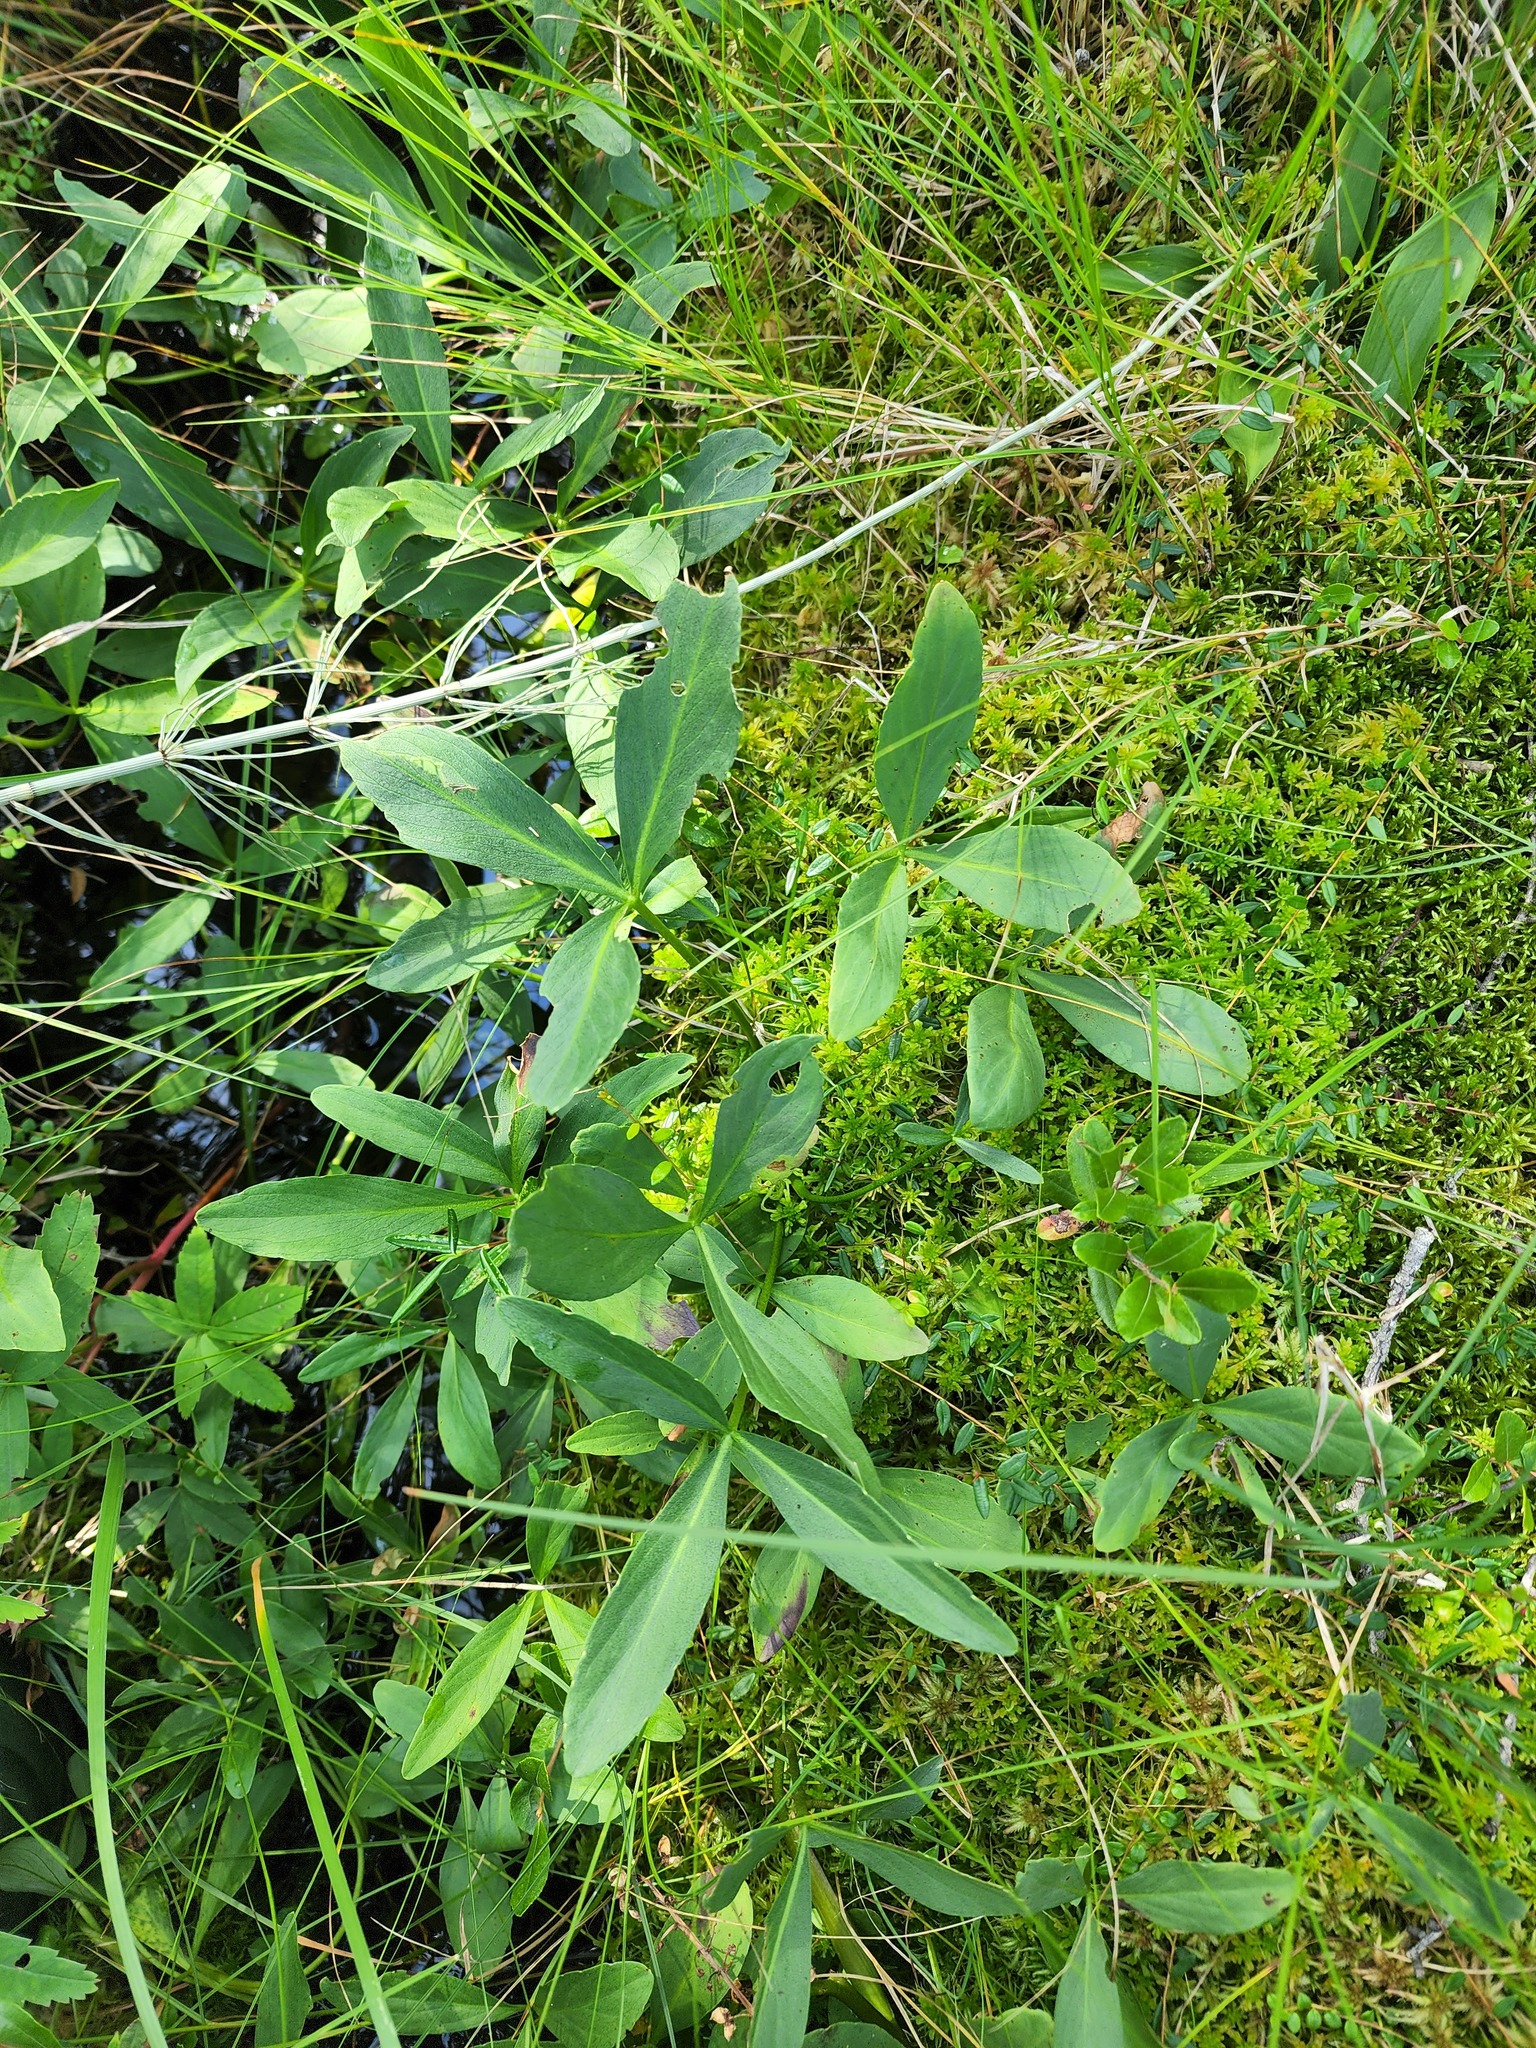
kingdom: Plantae
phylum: Tracheophyta
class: Magnoliopsida
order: Asterales
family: Menyanthaceae
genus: Menyanthes
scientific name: Menyanthes trifoliata
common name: Bogbean
